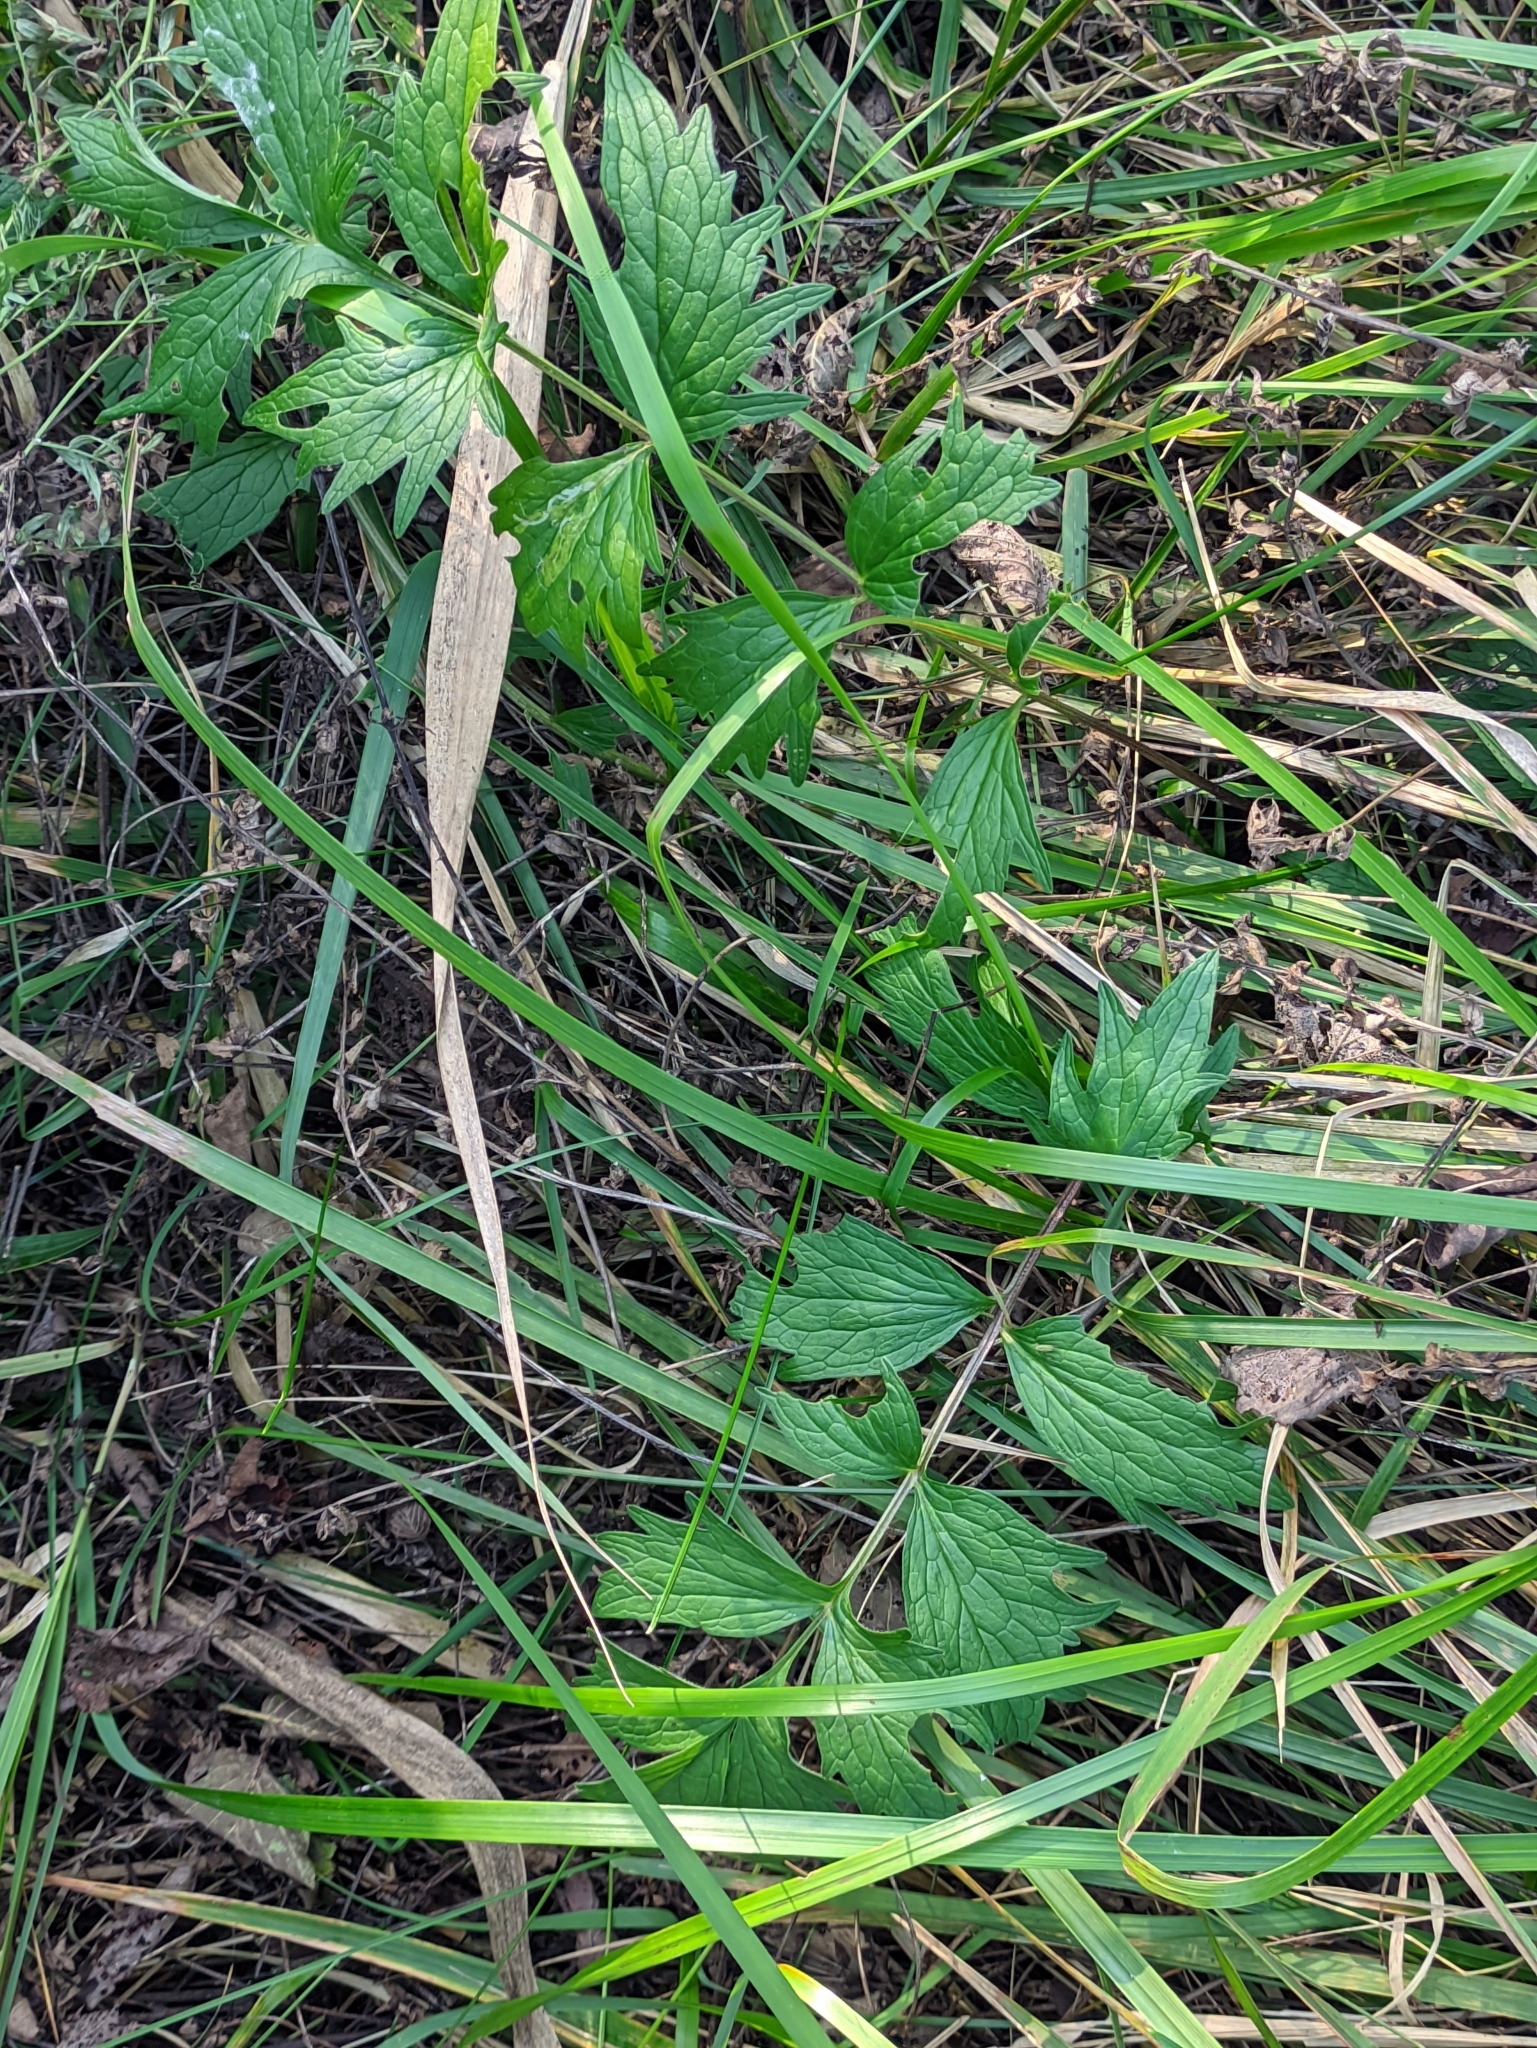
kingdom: Plantae
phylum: Tracheophyta
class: Magnoliopsida
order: Dipsacales
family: Caprifoliaceae
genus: Valeriana
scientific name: Valeriana officinalis
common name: Common valerian
